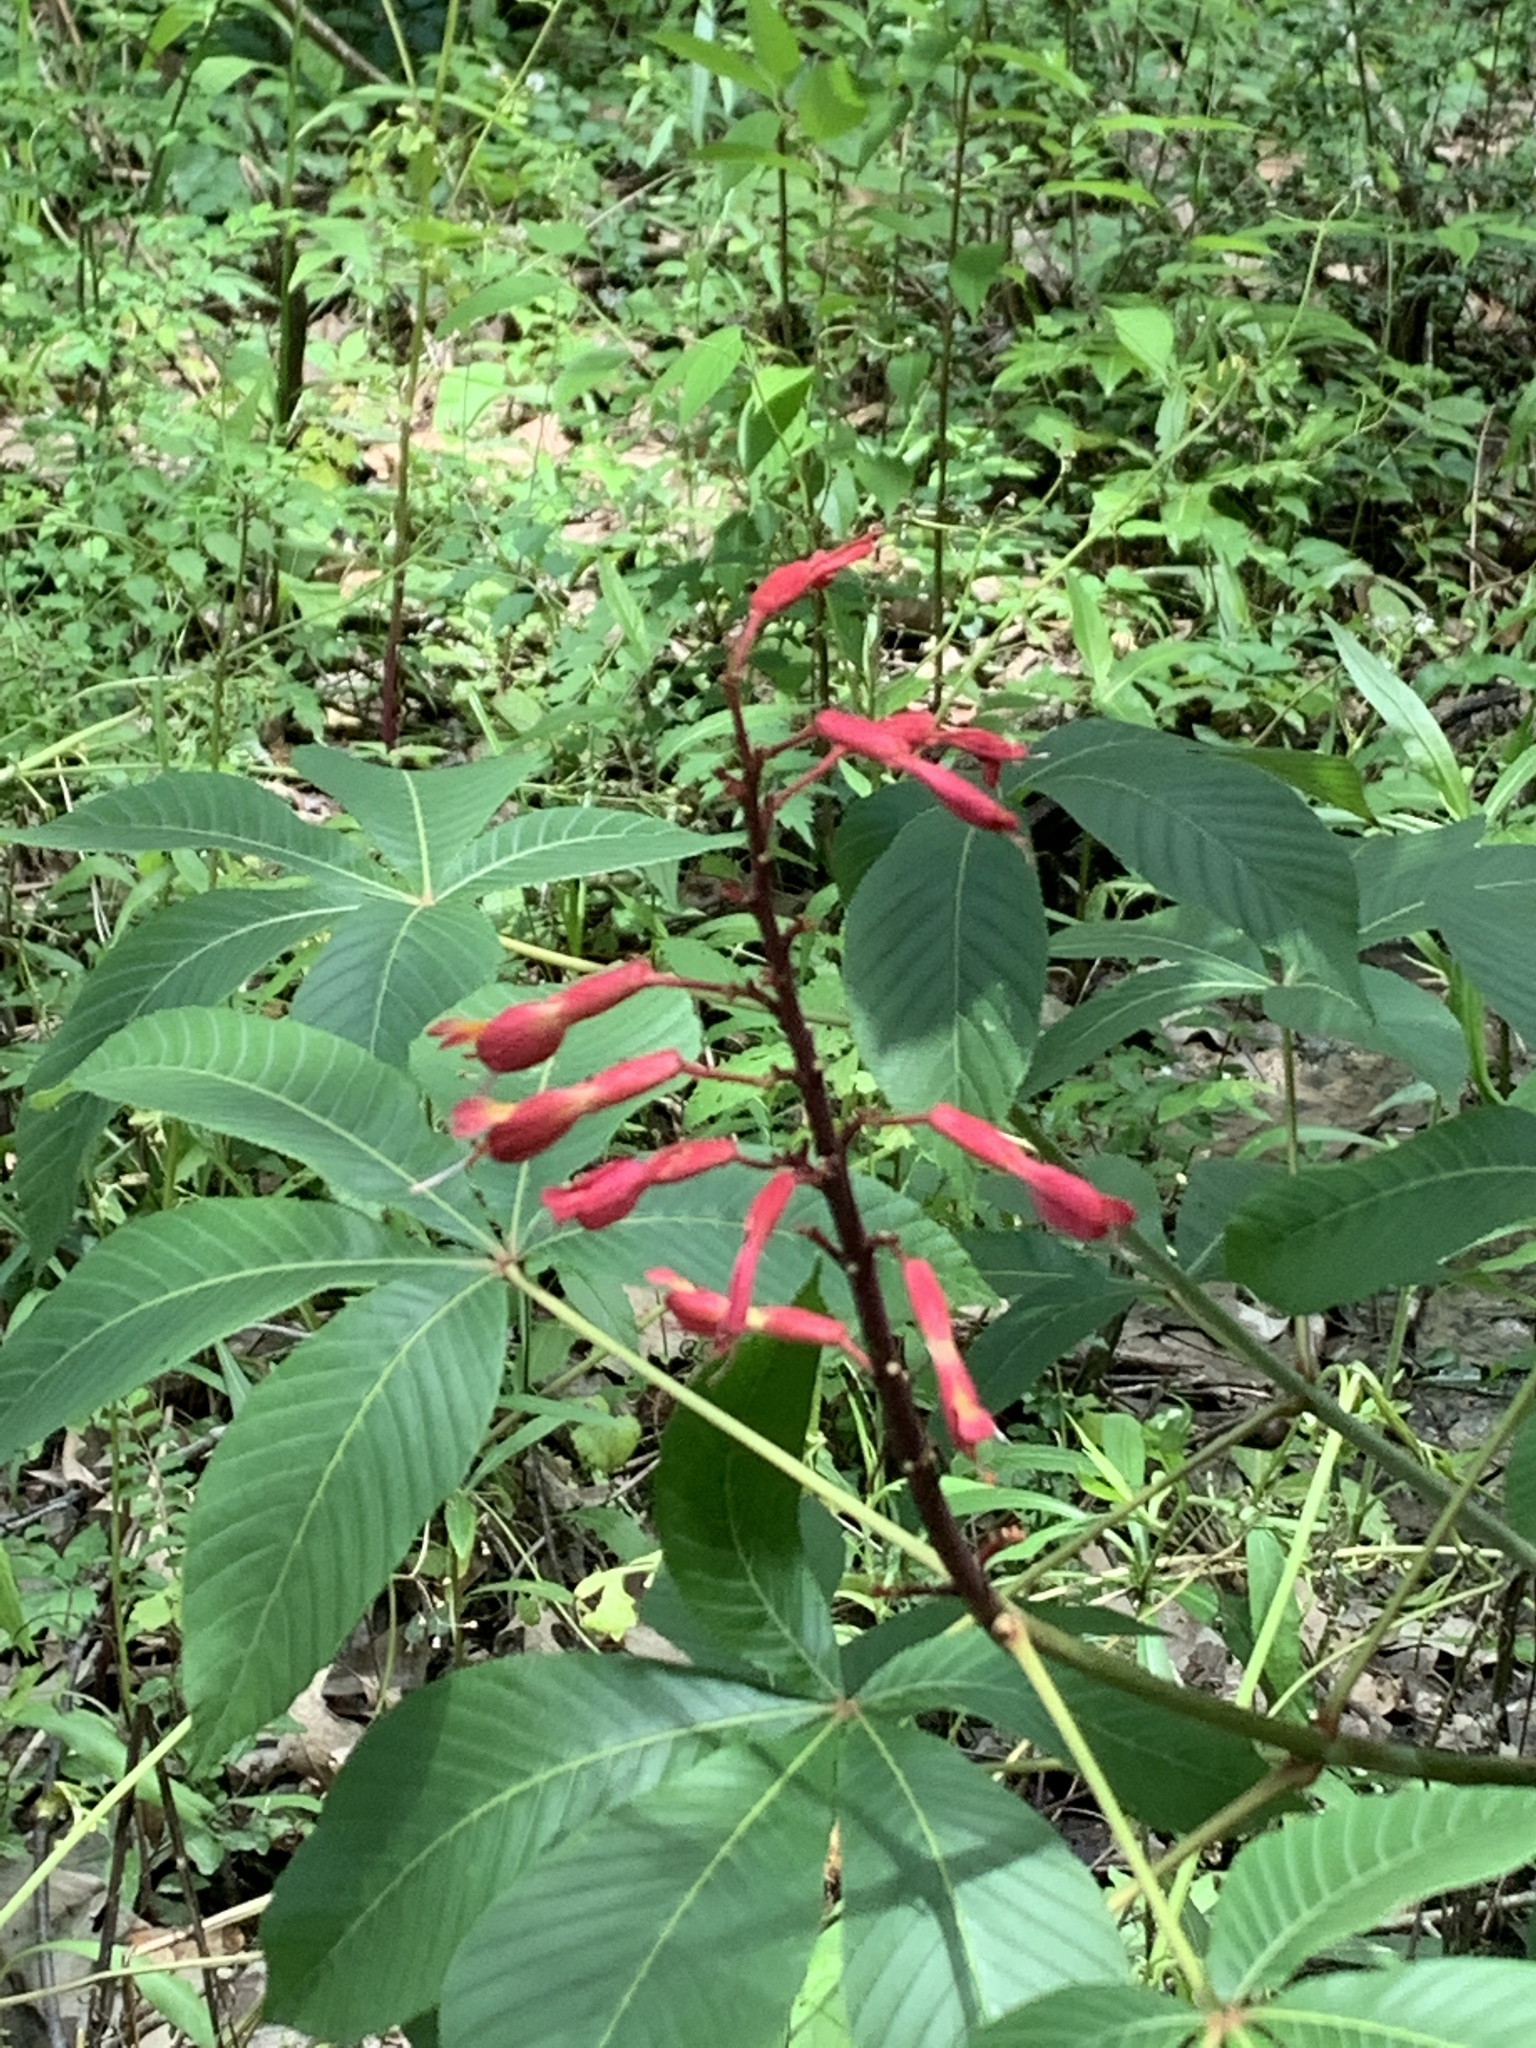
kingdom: Plantae
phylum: Tracheophyta
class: Magnoliopsida
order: Sapindales
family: Sapindaceae
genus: Aesculus
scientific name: Aesculus pavia
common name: Red buckeye
